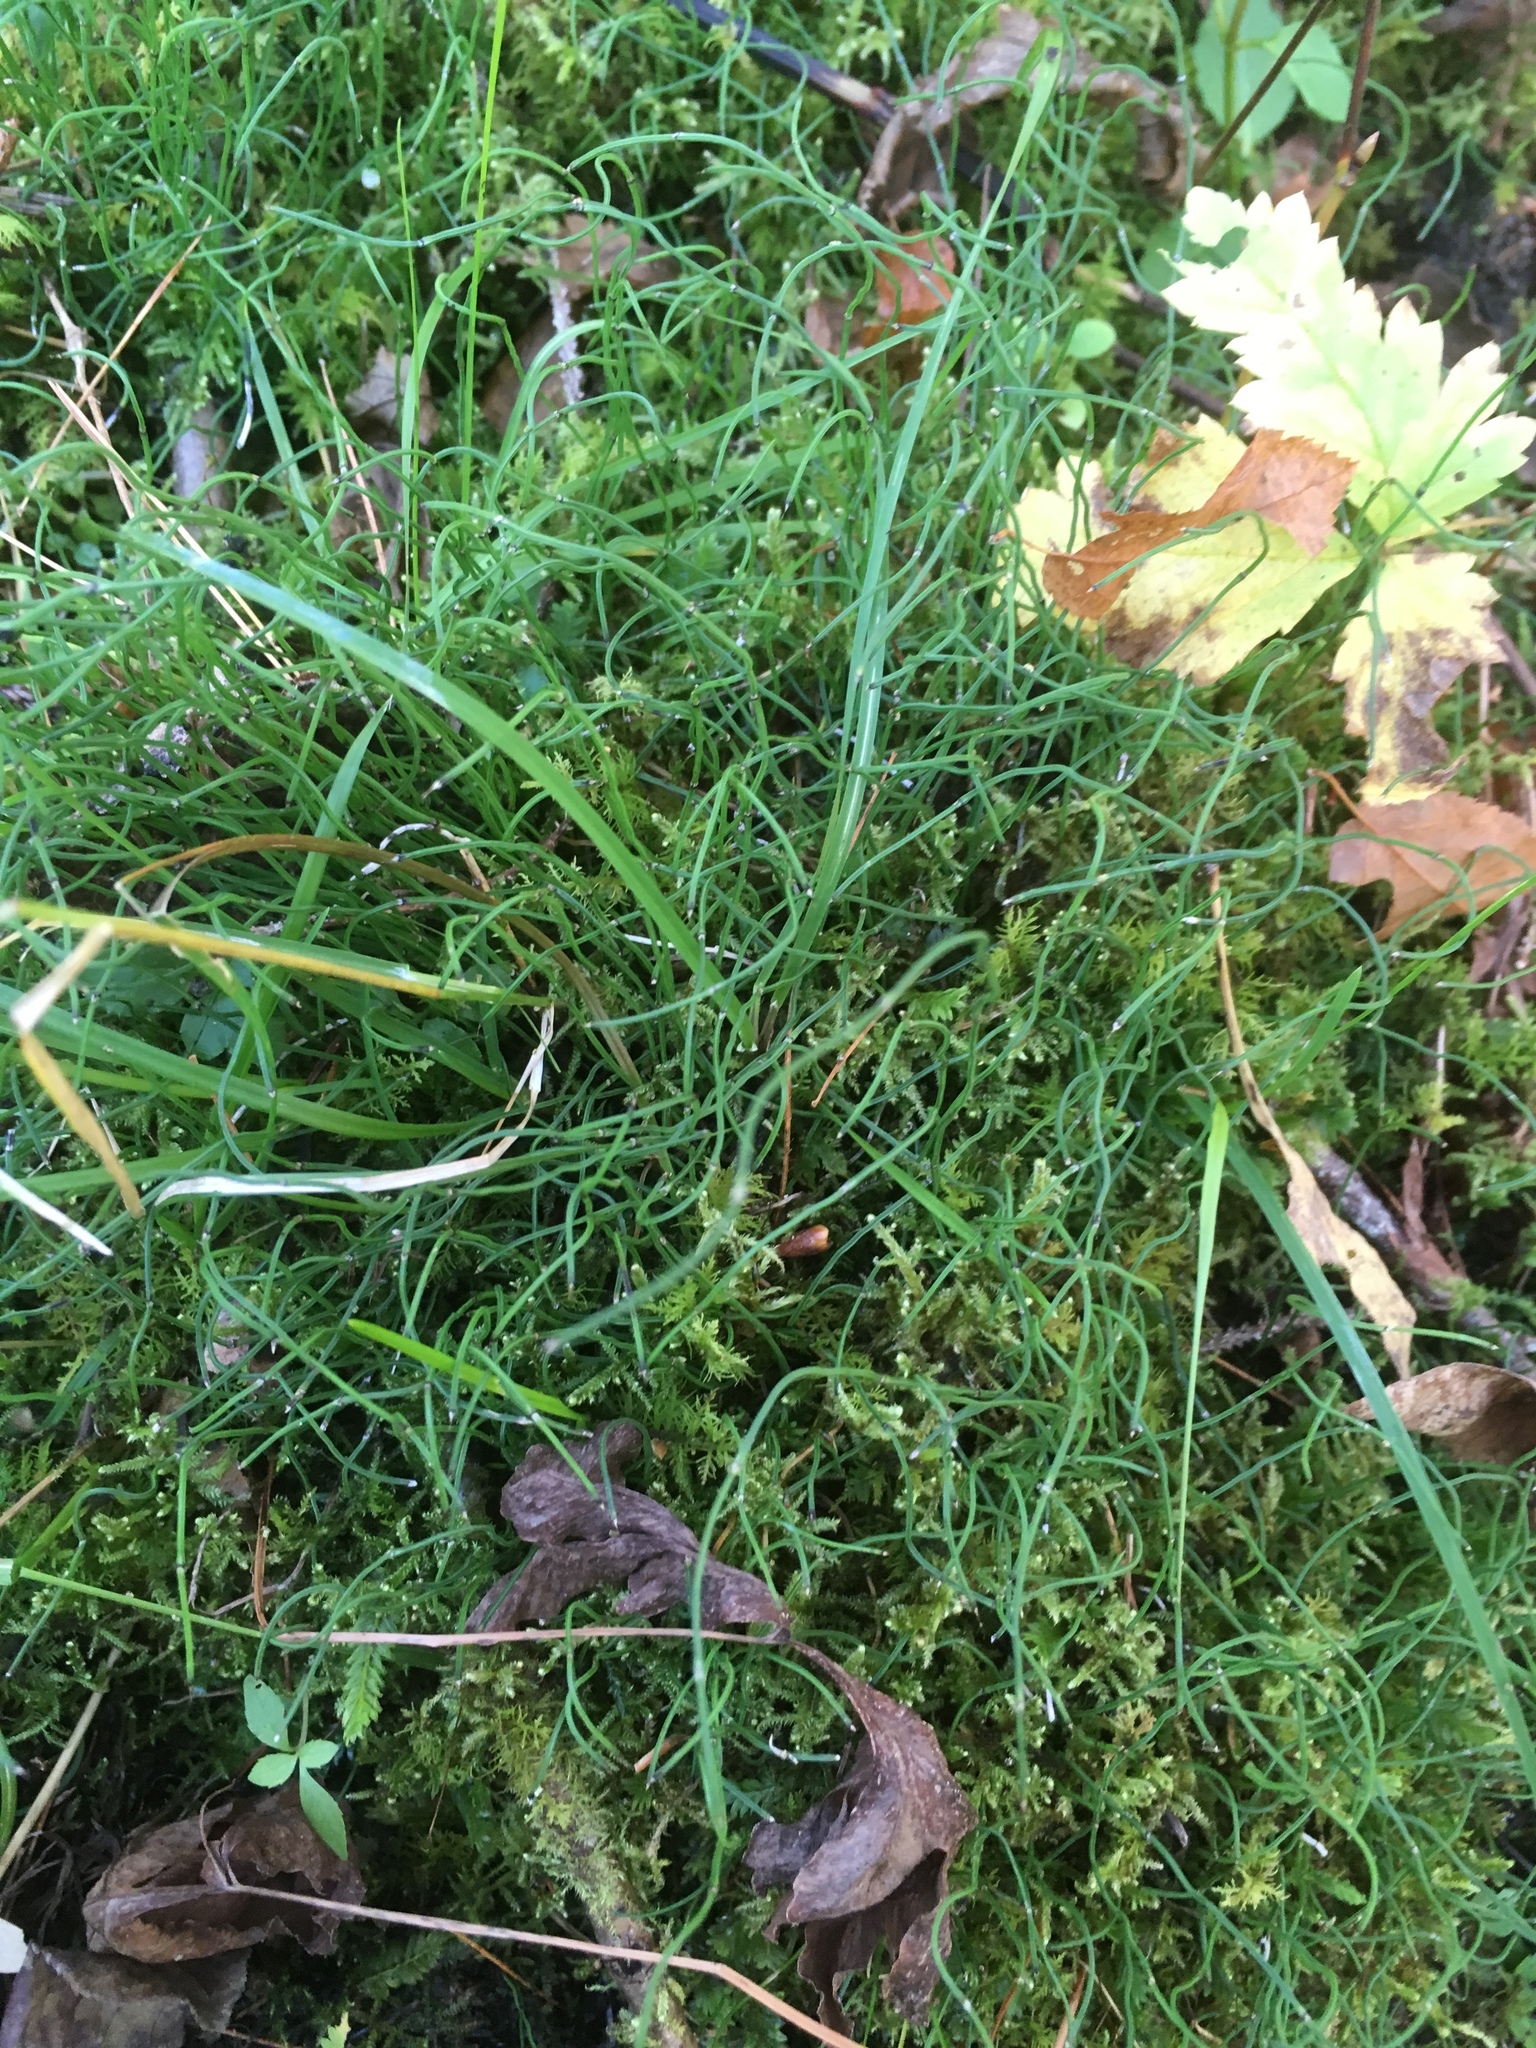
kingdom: Plantae
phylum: Tracheophyta
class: Polypodiopsida
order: Equisetales
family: Equisetaceae
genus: Equisetum
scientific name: Equisetum scirpoides
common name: Delicate horsetail
